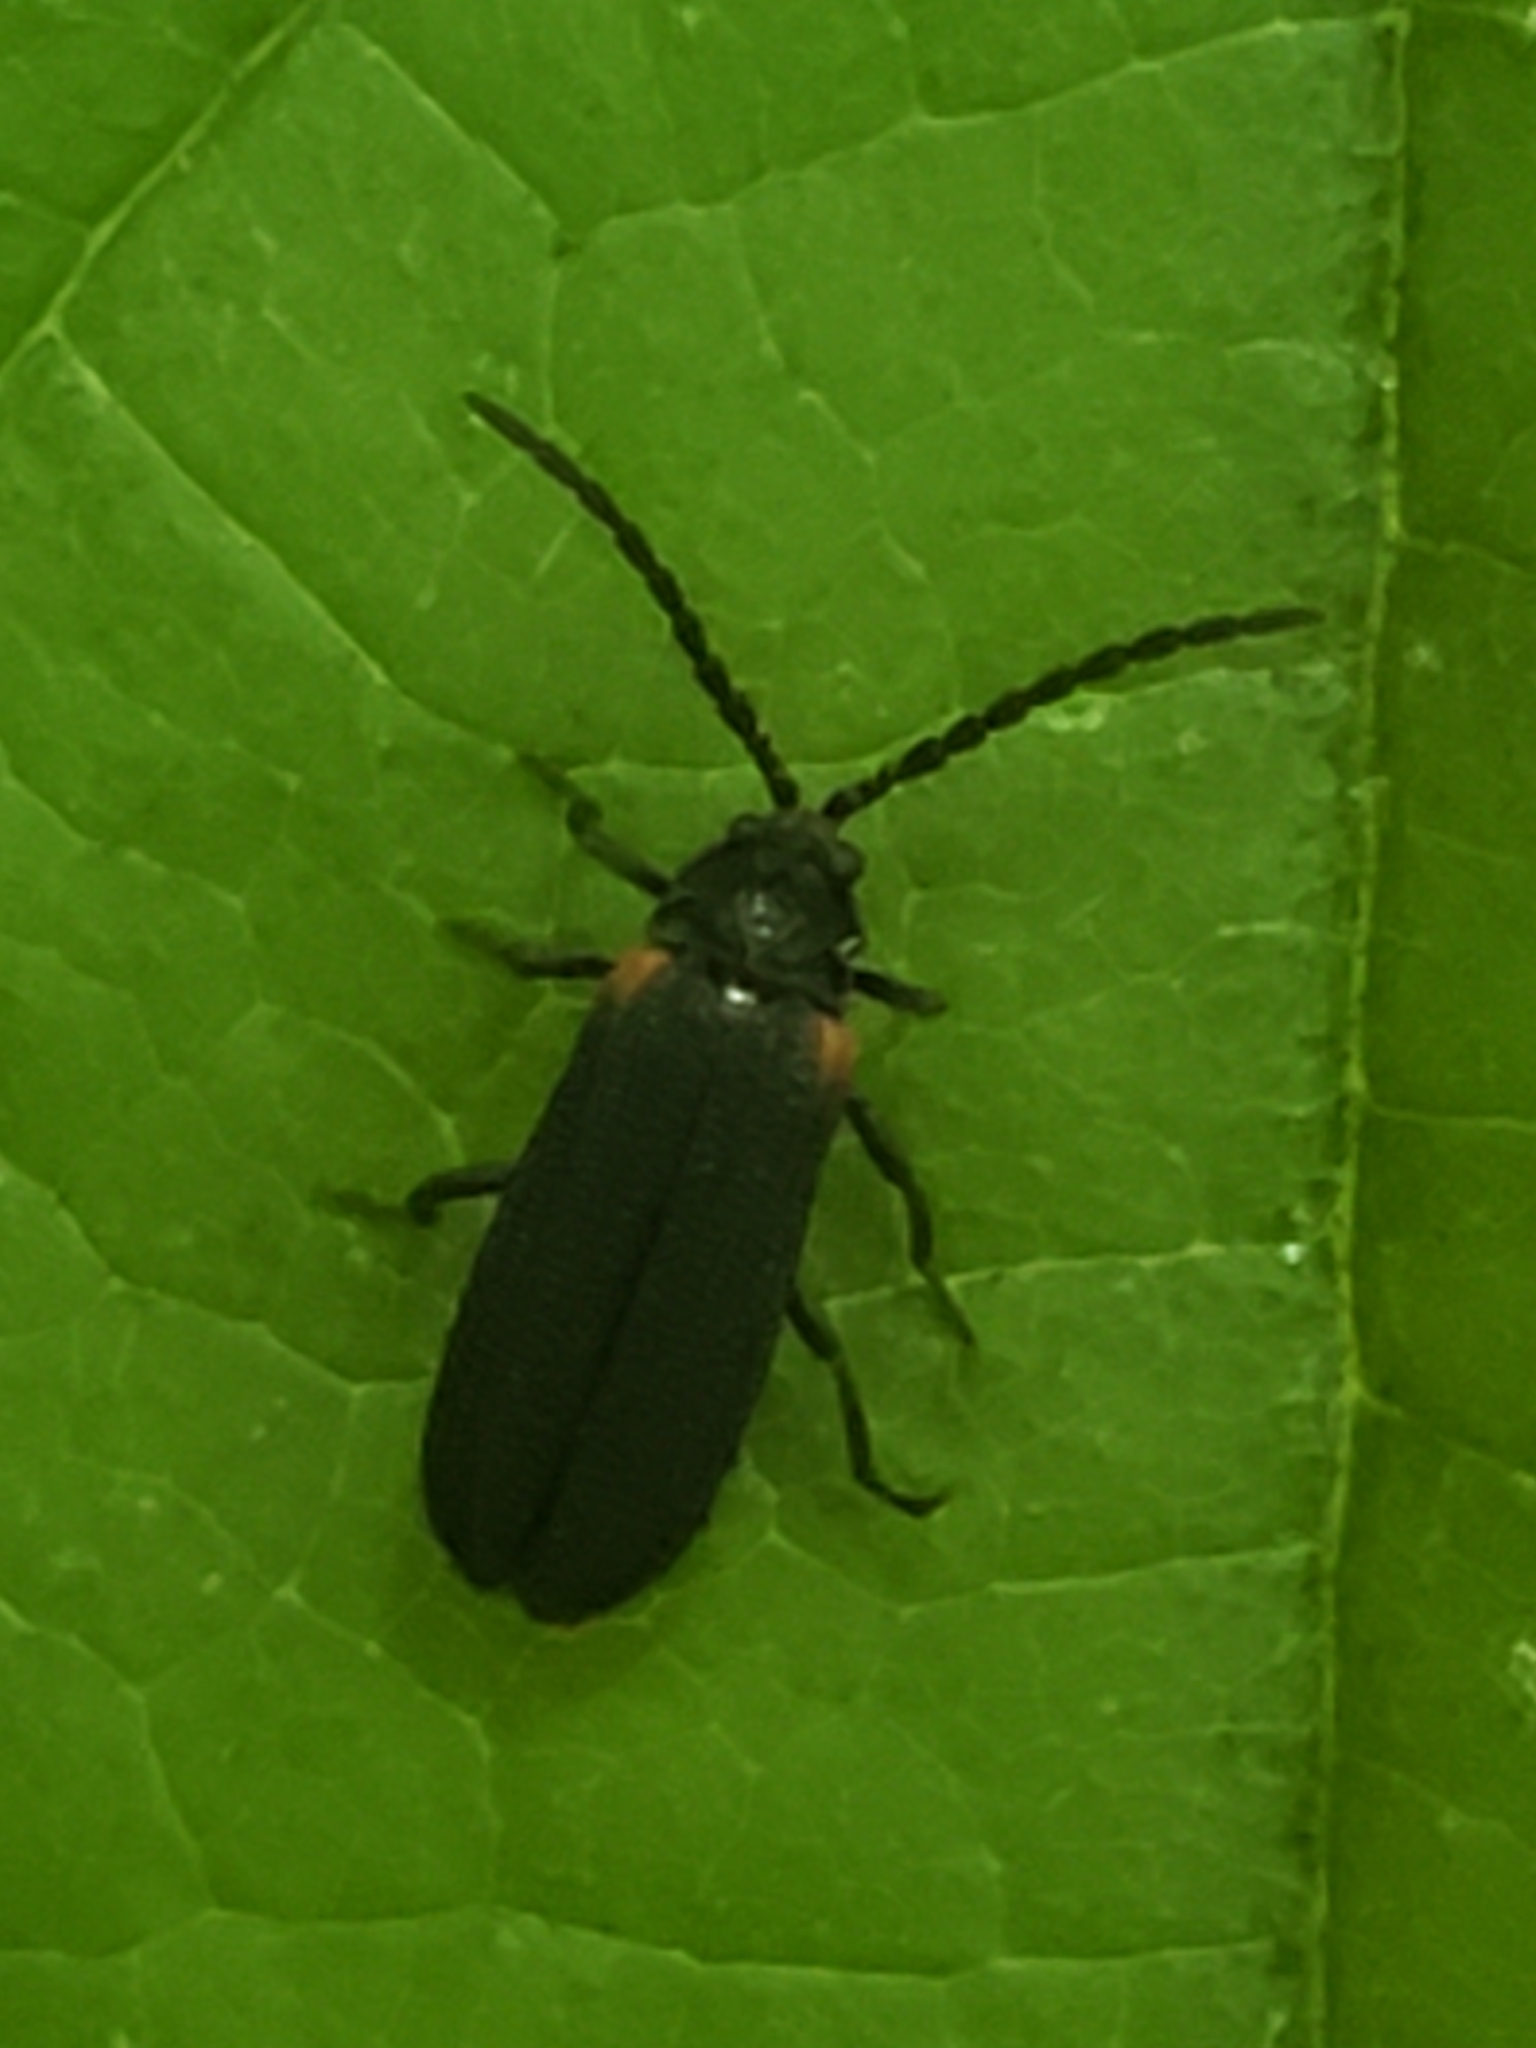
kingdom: Animalia
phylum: Arthropoda
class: Insecta
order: Coleoptera
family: Lycidae
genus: Greenarus
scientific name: Greenarus thoracicus
